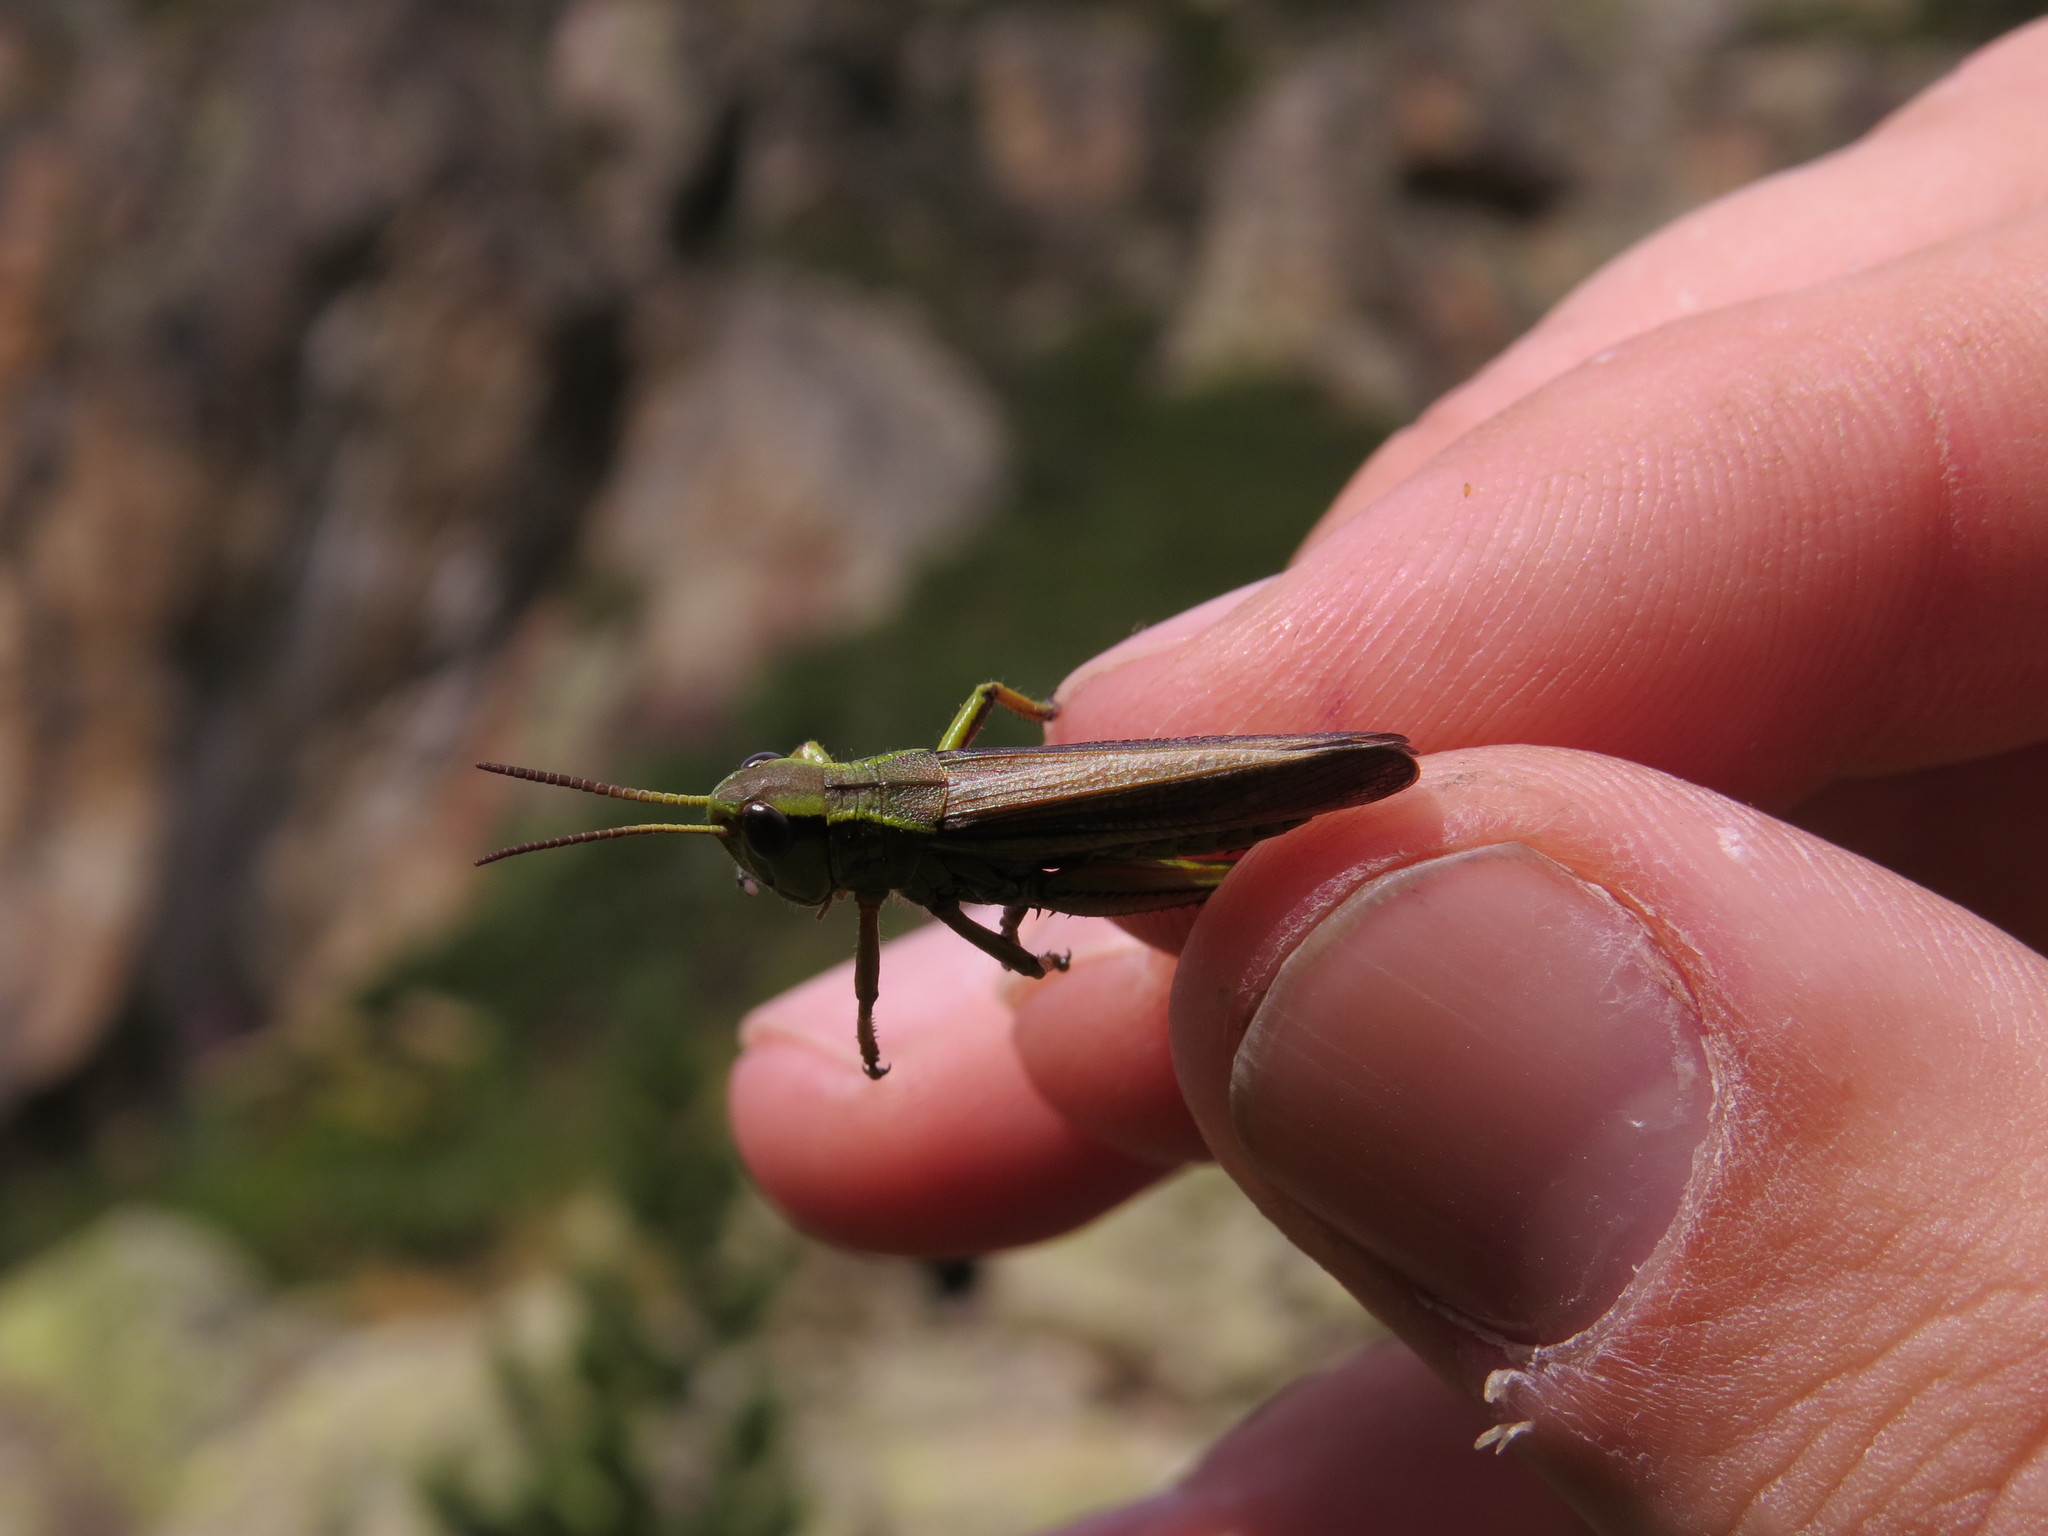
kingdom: Animalia
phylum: Arthropoda
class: Insecta
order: Orthoptera
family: Acrididae
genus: Stethophyma
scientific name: Stethophyma grossum
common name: Large marsh grasshopper
